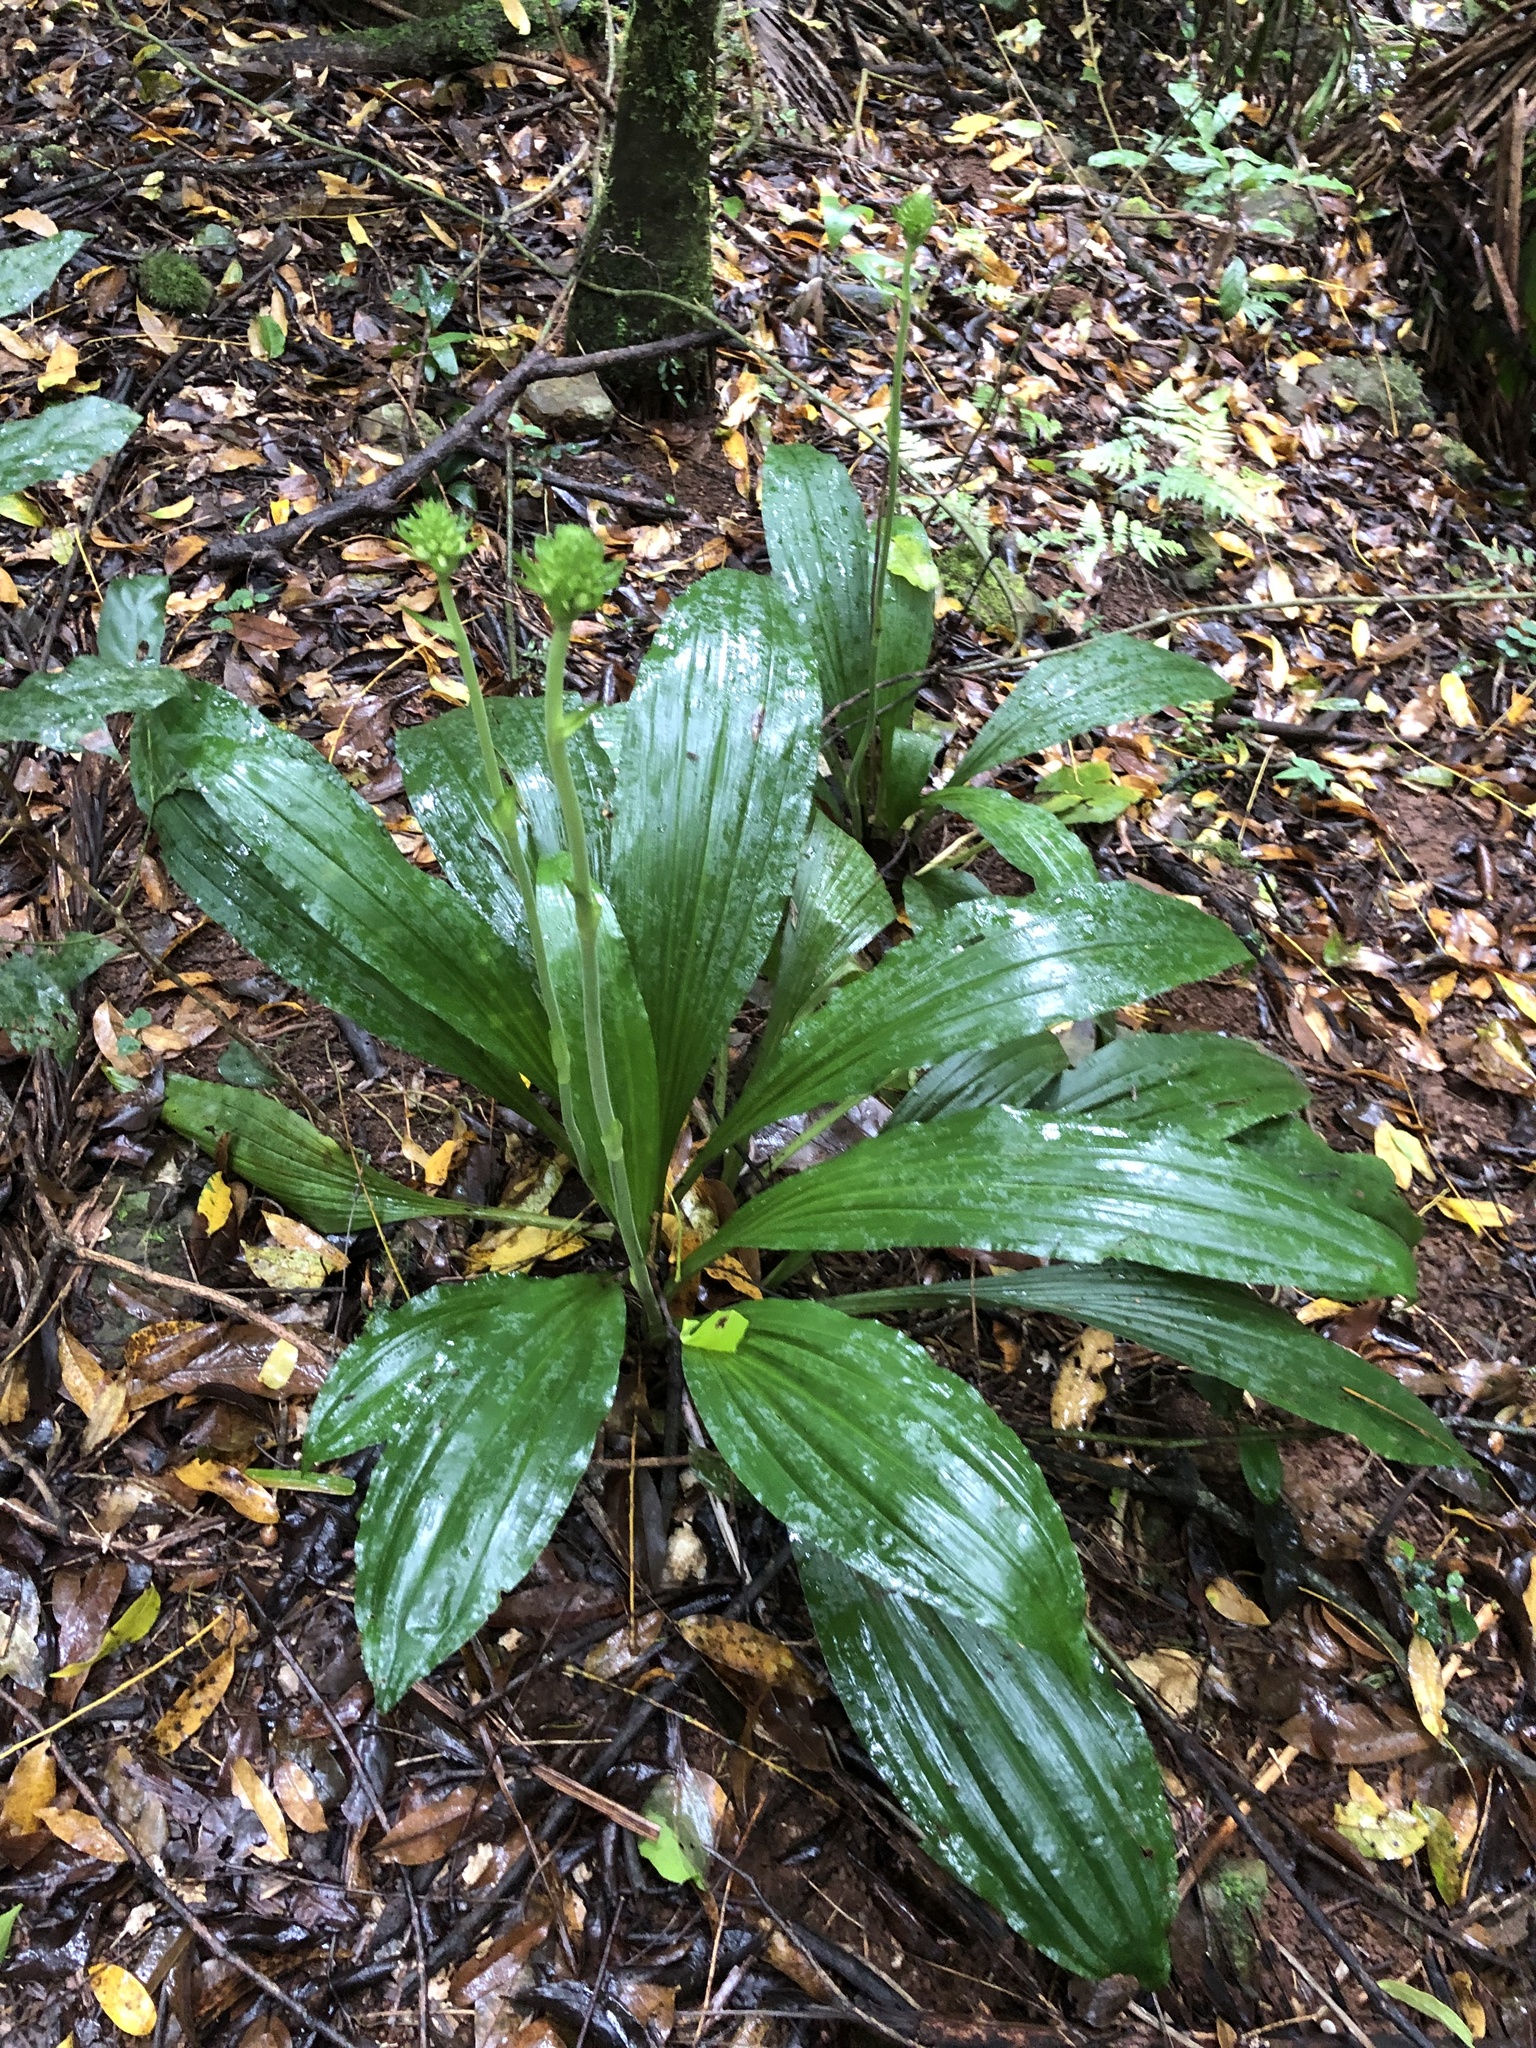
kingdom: Plantae
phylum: Tracheophyta
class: Liliopsida
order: Asparagales
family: Orchidaceae
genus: Calanthe
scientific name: Calanthe triplicata
